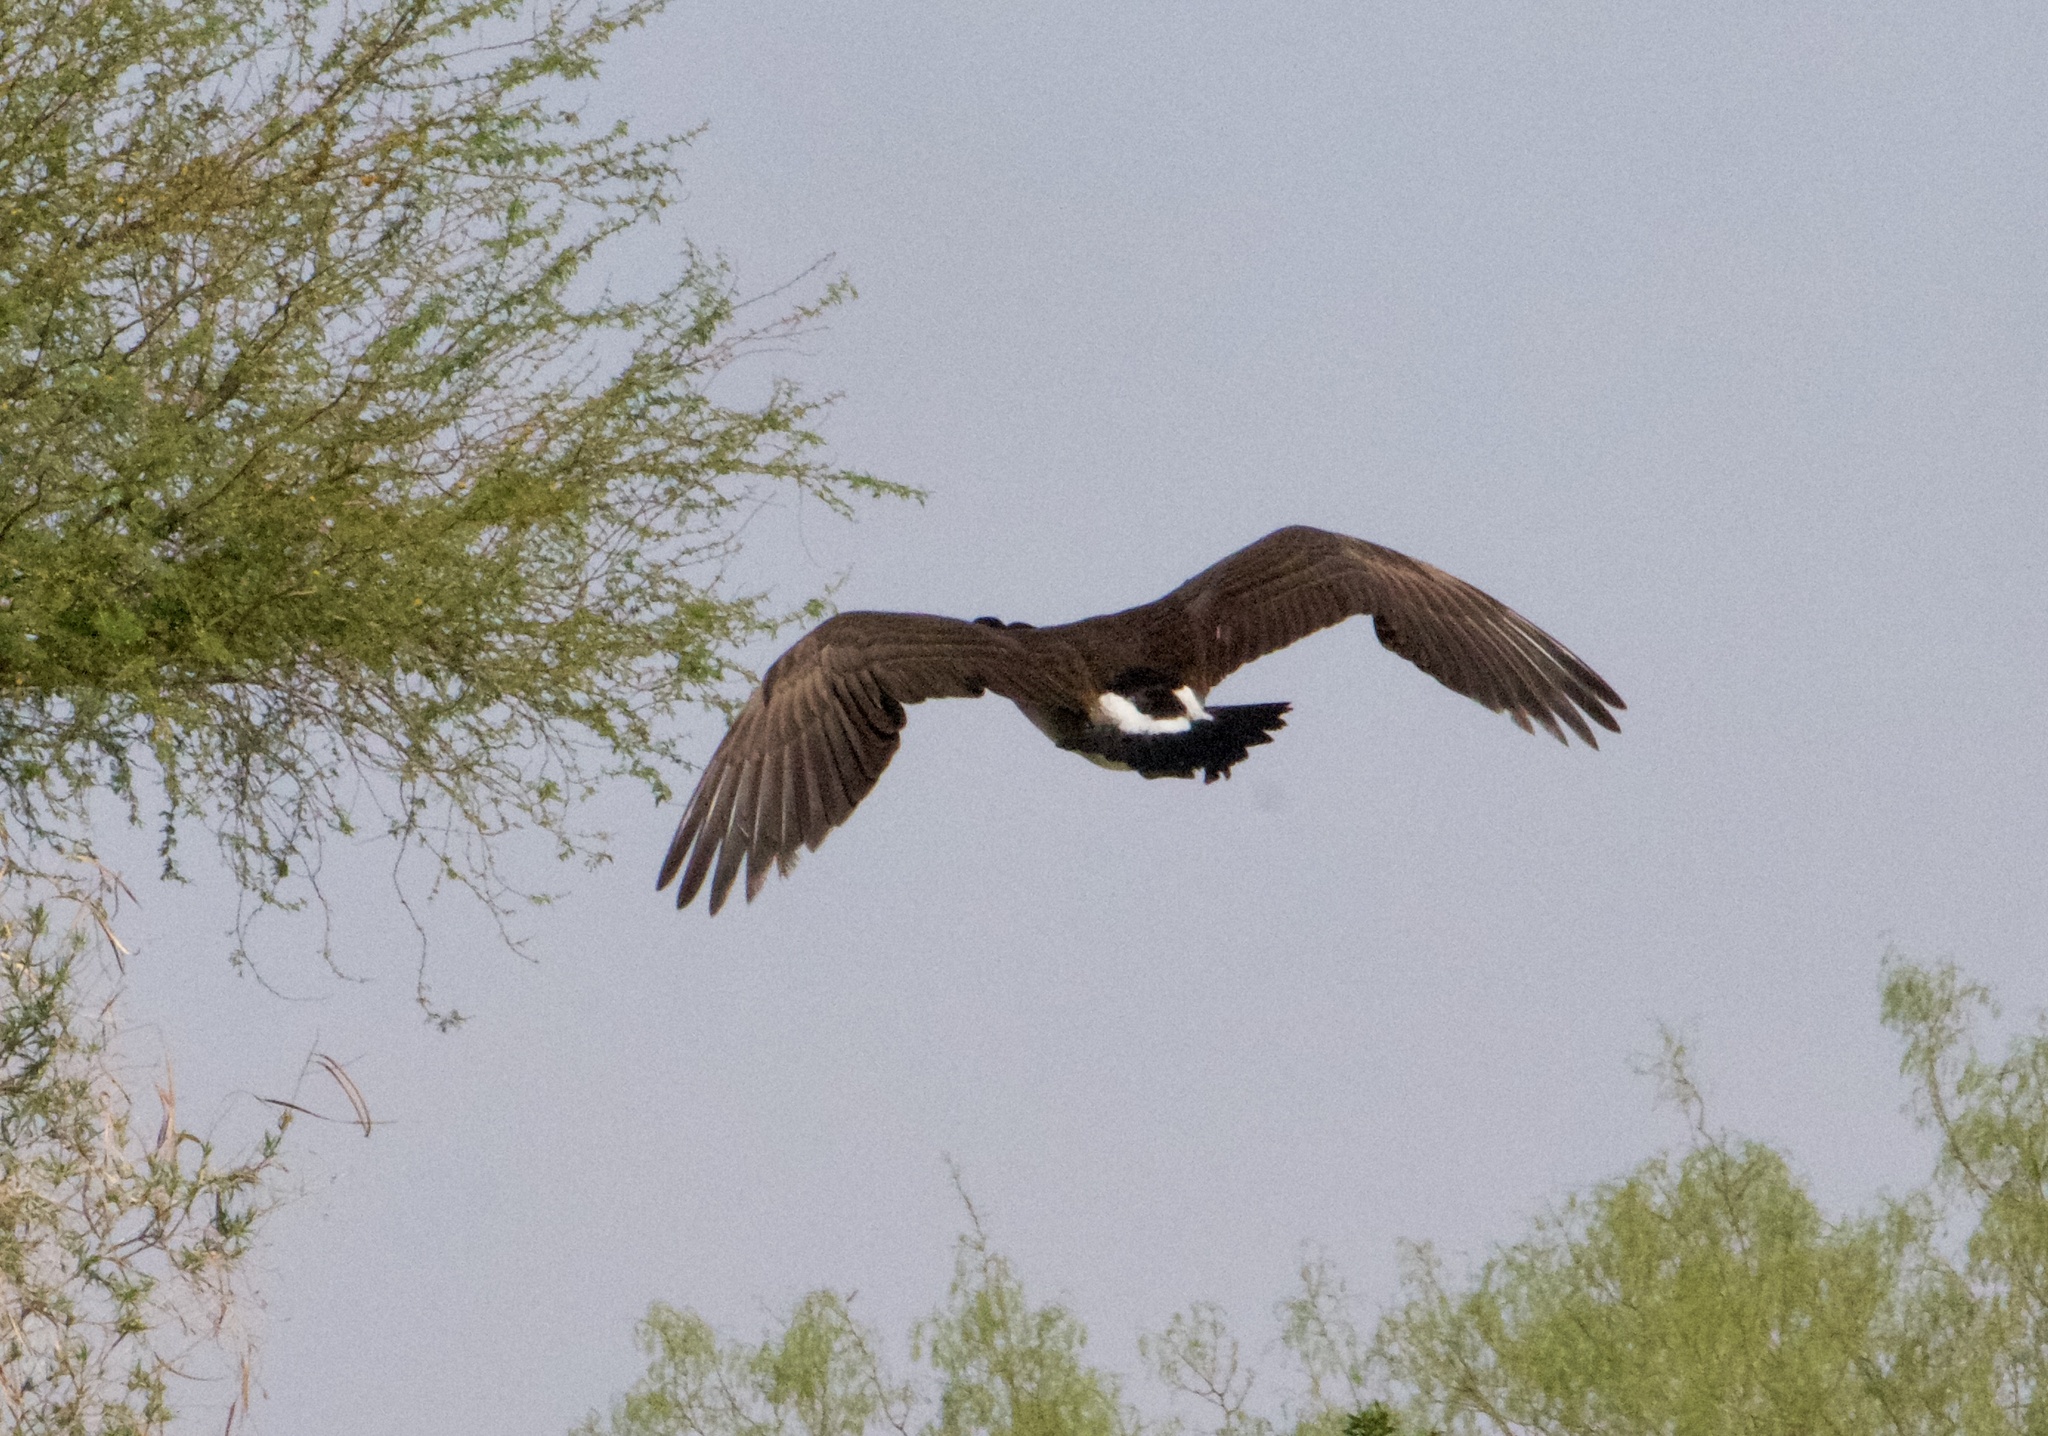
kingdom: Animalia
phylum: Chordata
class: Aves
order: Anseriformes
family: Anatidae
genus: Branta
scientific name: Branta canadensis
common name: Canada goose
